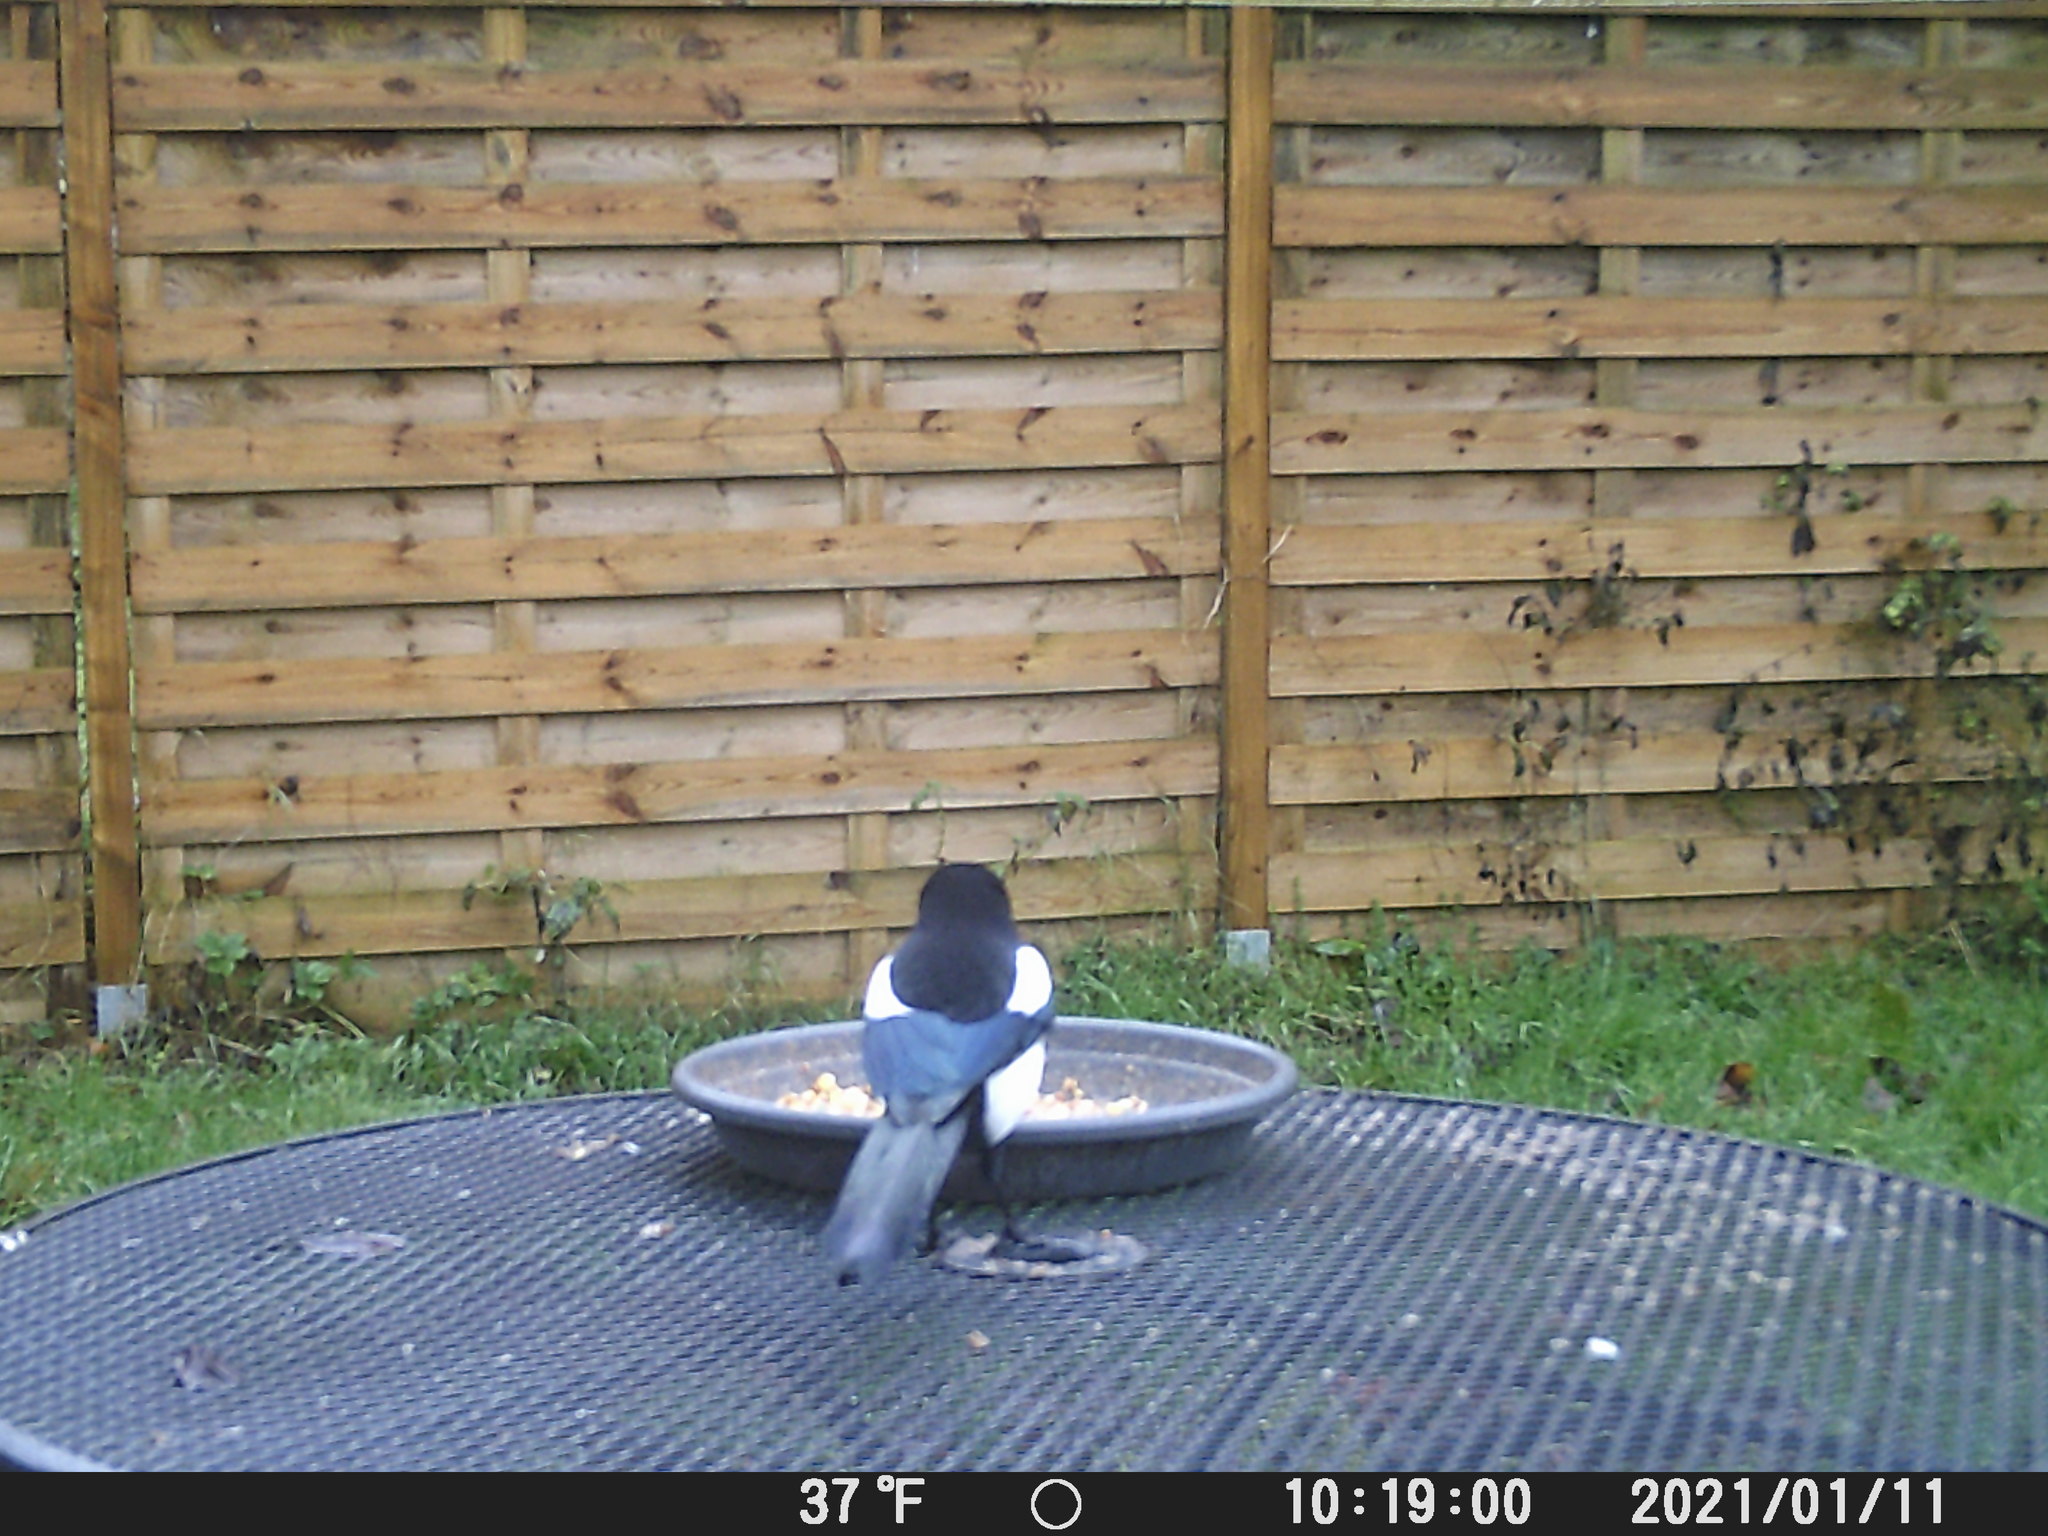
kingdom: Animalia
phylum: Chordata
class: Aves
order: Passeriformes
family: Corvidae
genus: Pica
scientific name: Pica pica
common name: Eurasian magpie
